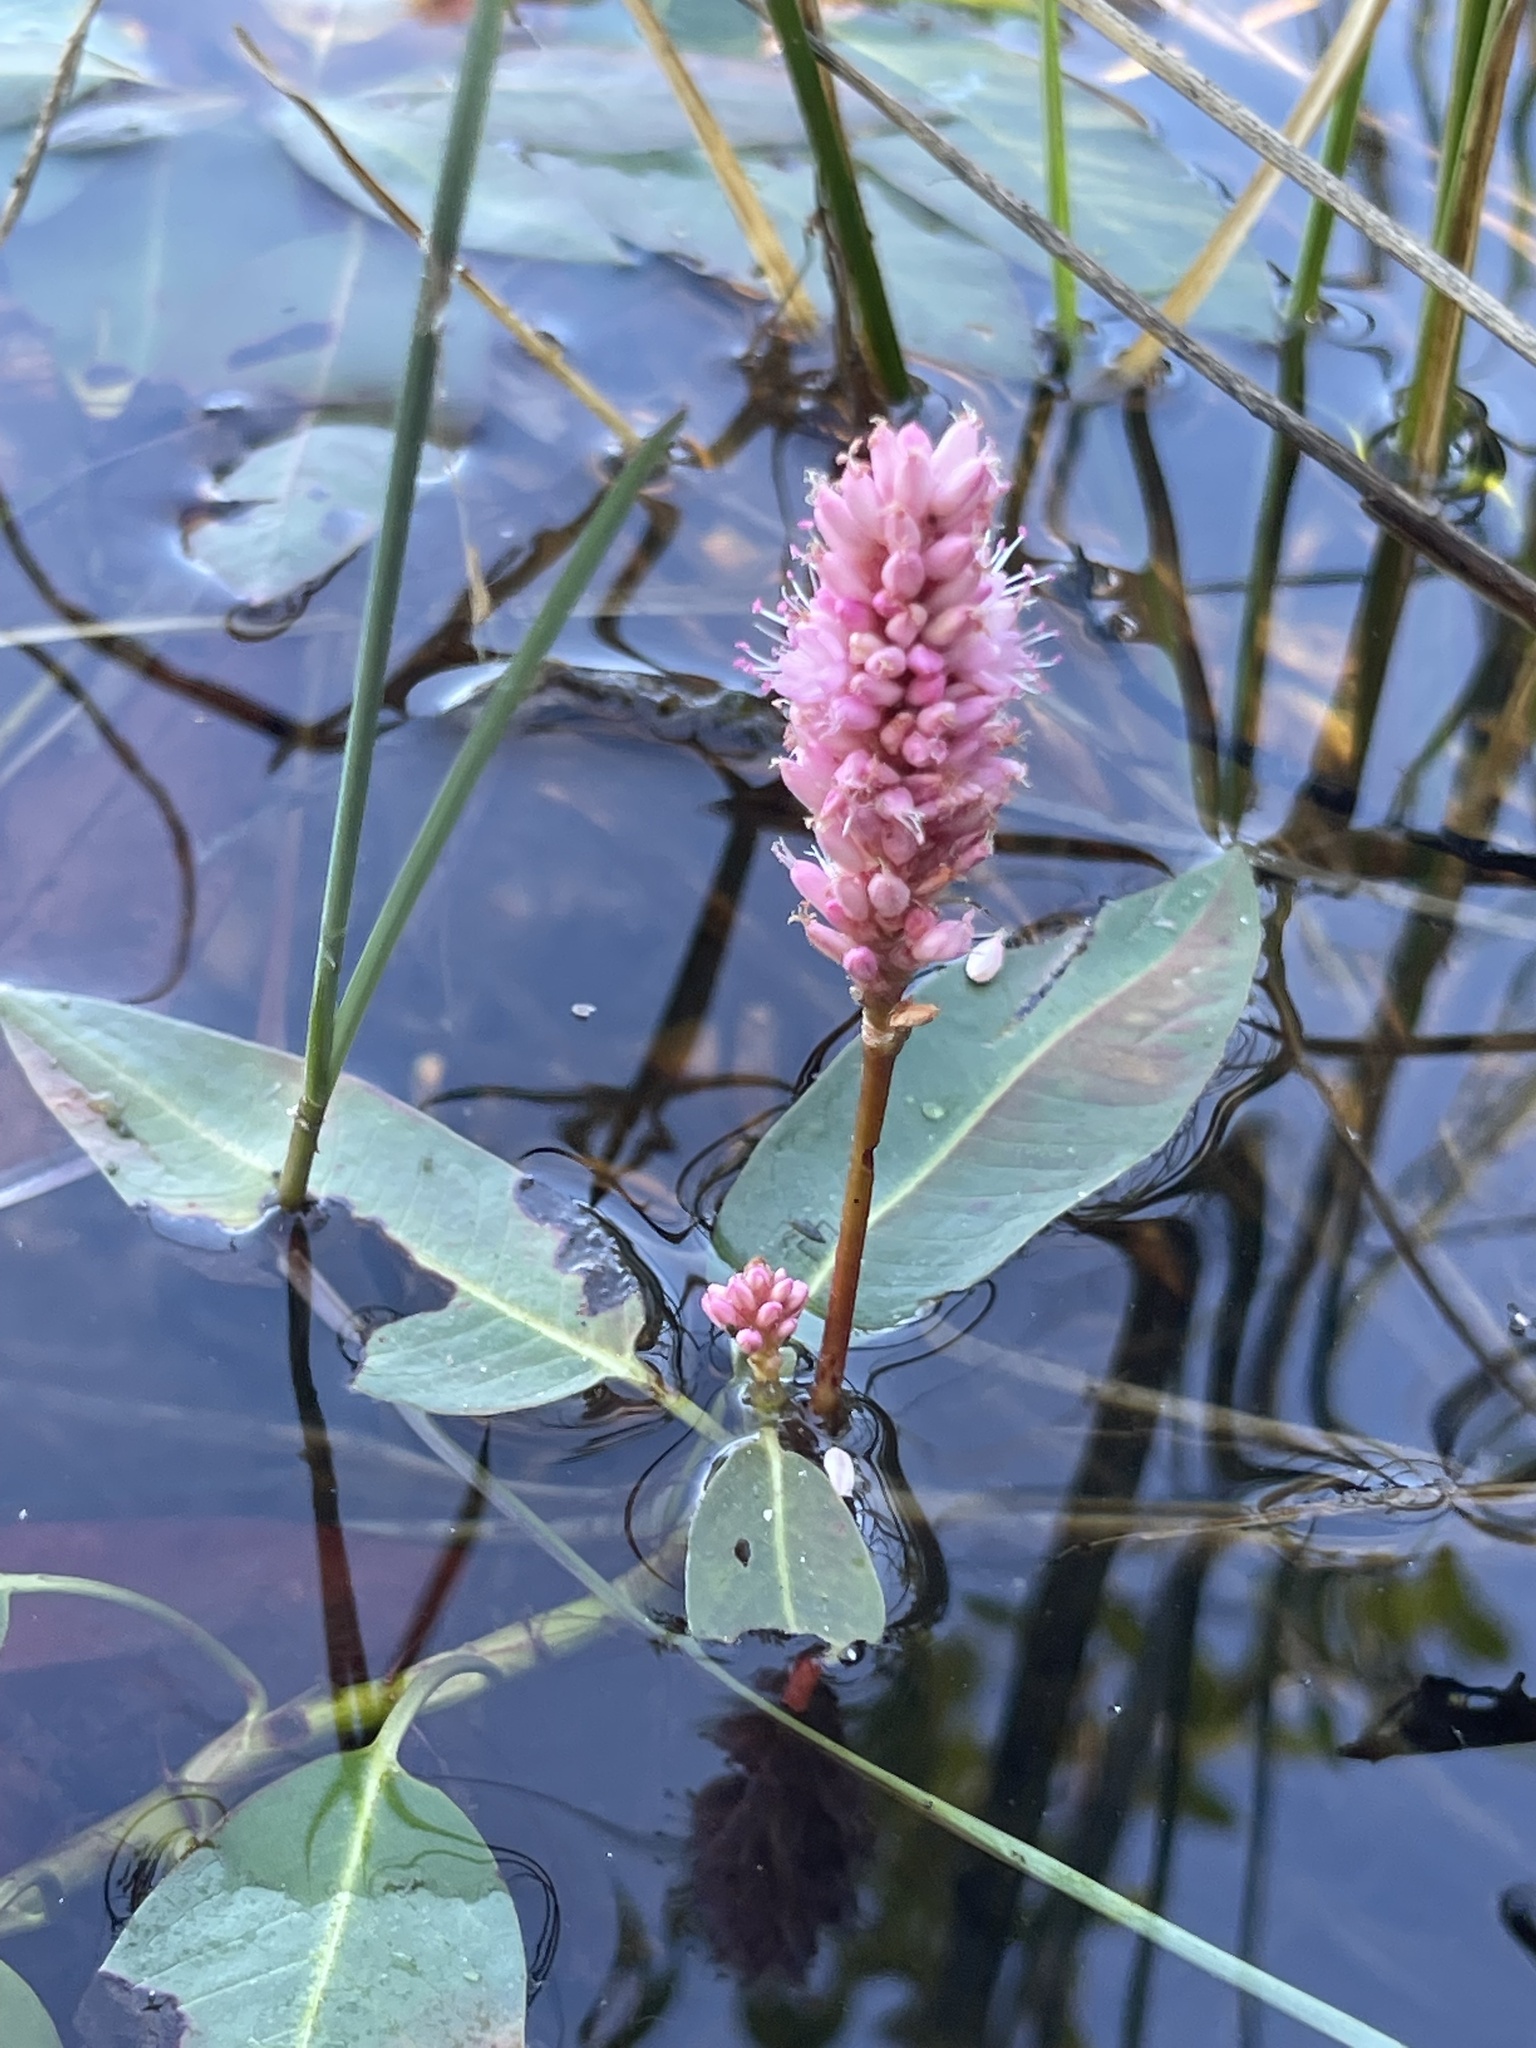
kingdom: Plantae
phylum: Tracheophyta
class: Magnoliopsida
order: Caryophyllales
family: Polygonaceae
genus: Persicaria
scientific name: Persicaria amphibia
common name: Amphibious bistort
